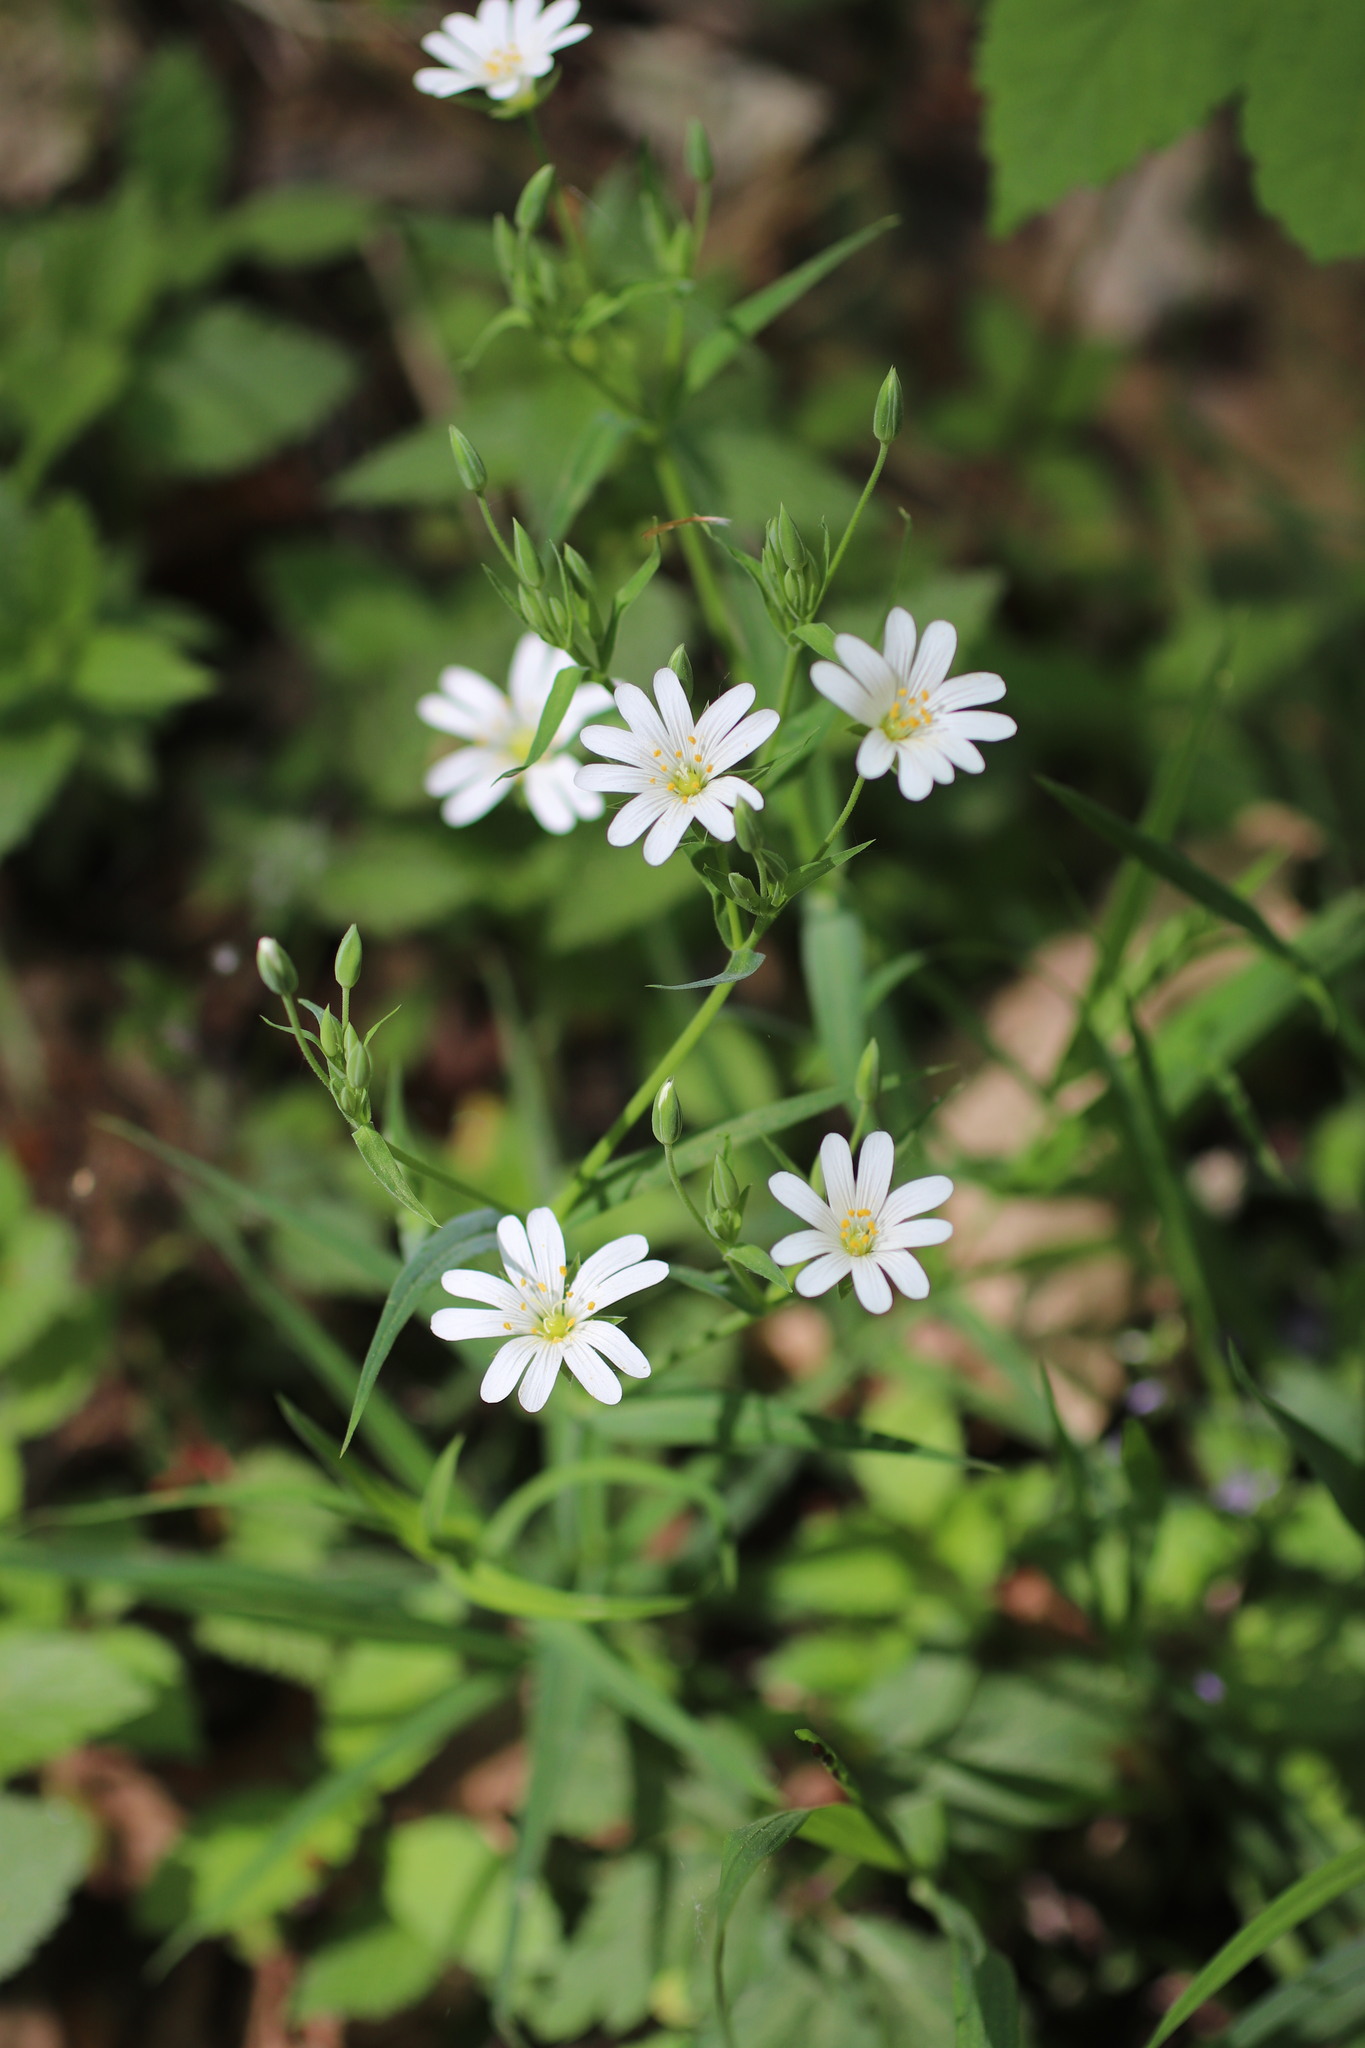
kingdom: Plantae
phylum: Tracheophyta
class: Magnoliopsida
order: Caryophyllales
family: Caryophyllaceae
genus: Rabelera
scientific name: Rabelera holostea
